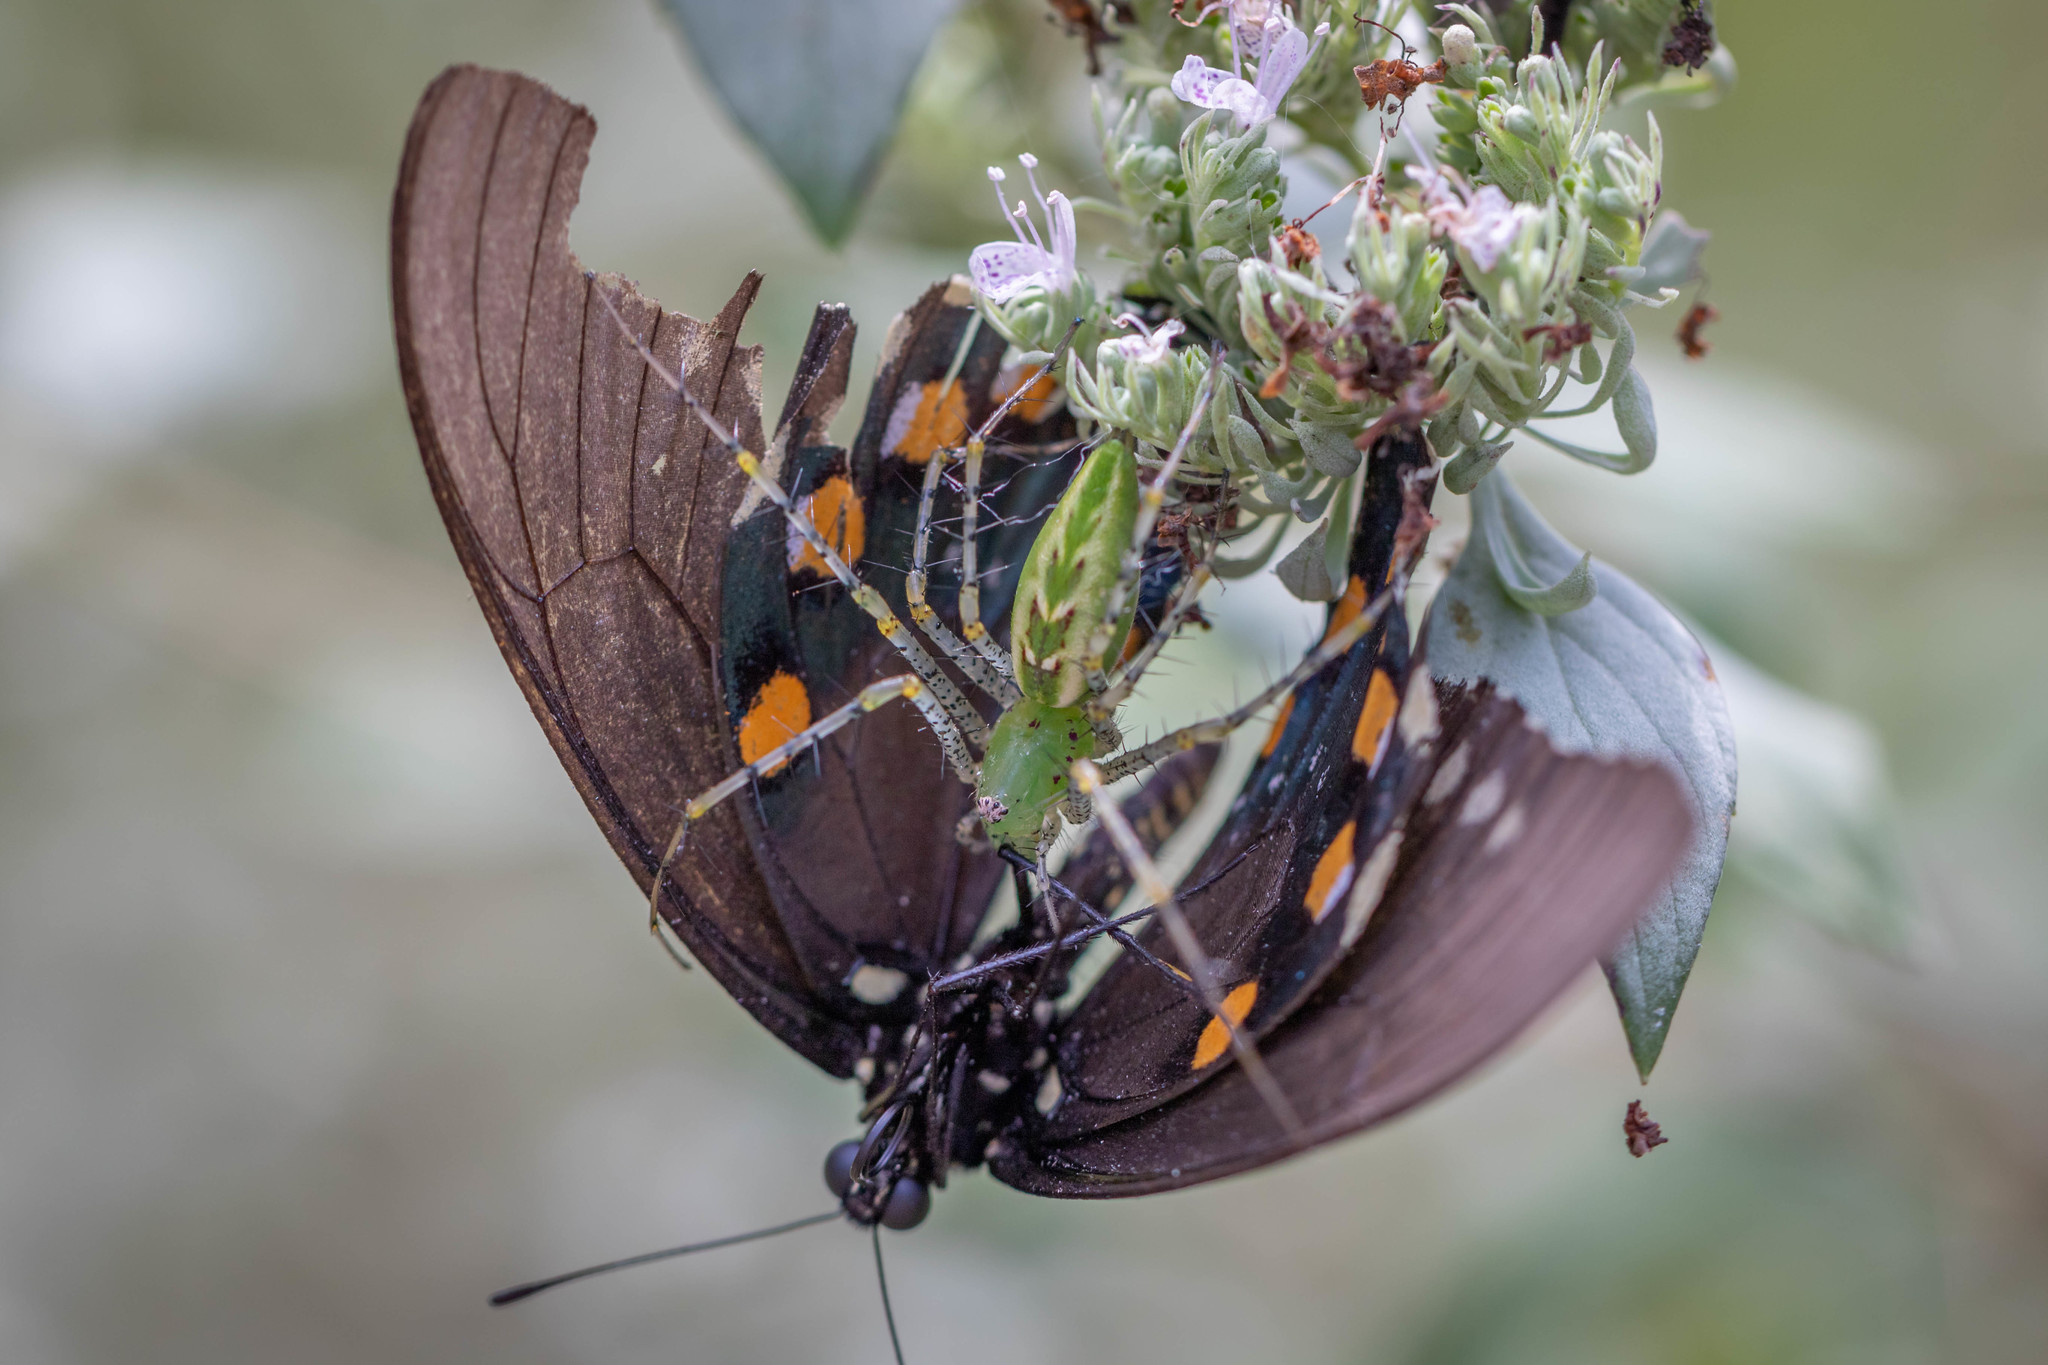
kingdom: Animalia
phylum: Arthropoda
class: Arachnida
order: Araneae
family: Oxyopidae
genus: Peucetia
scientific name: Peucetia viridans
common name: Lynx spiders
